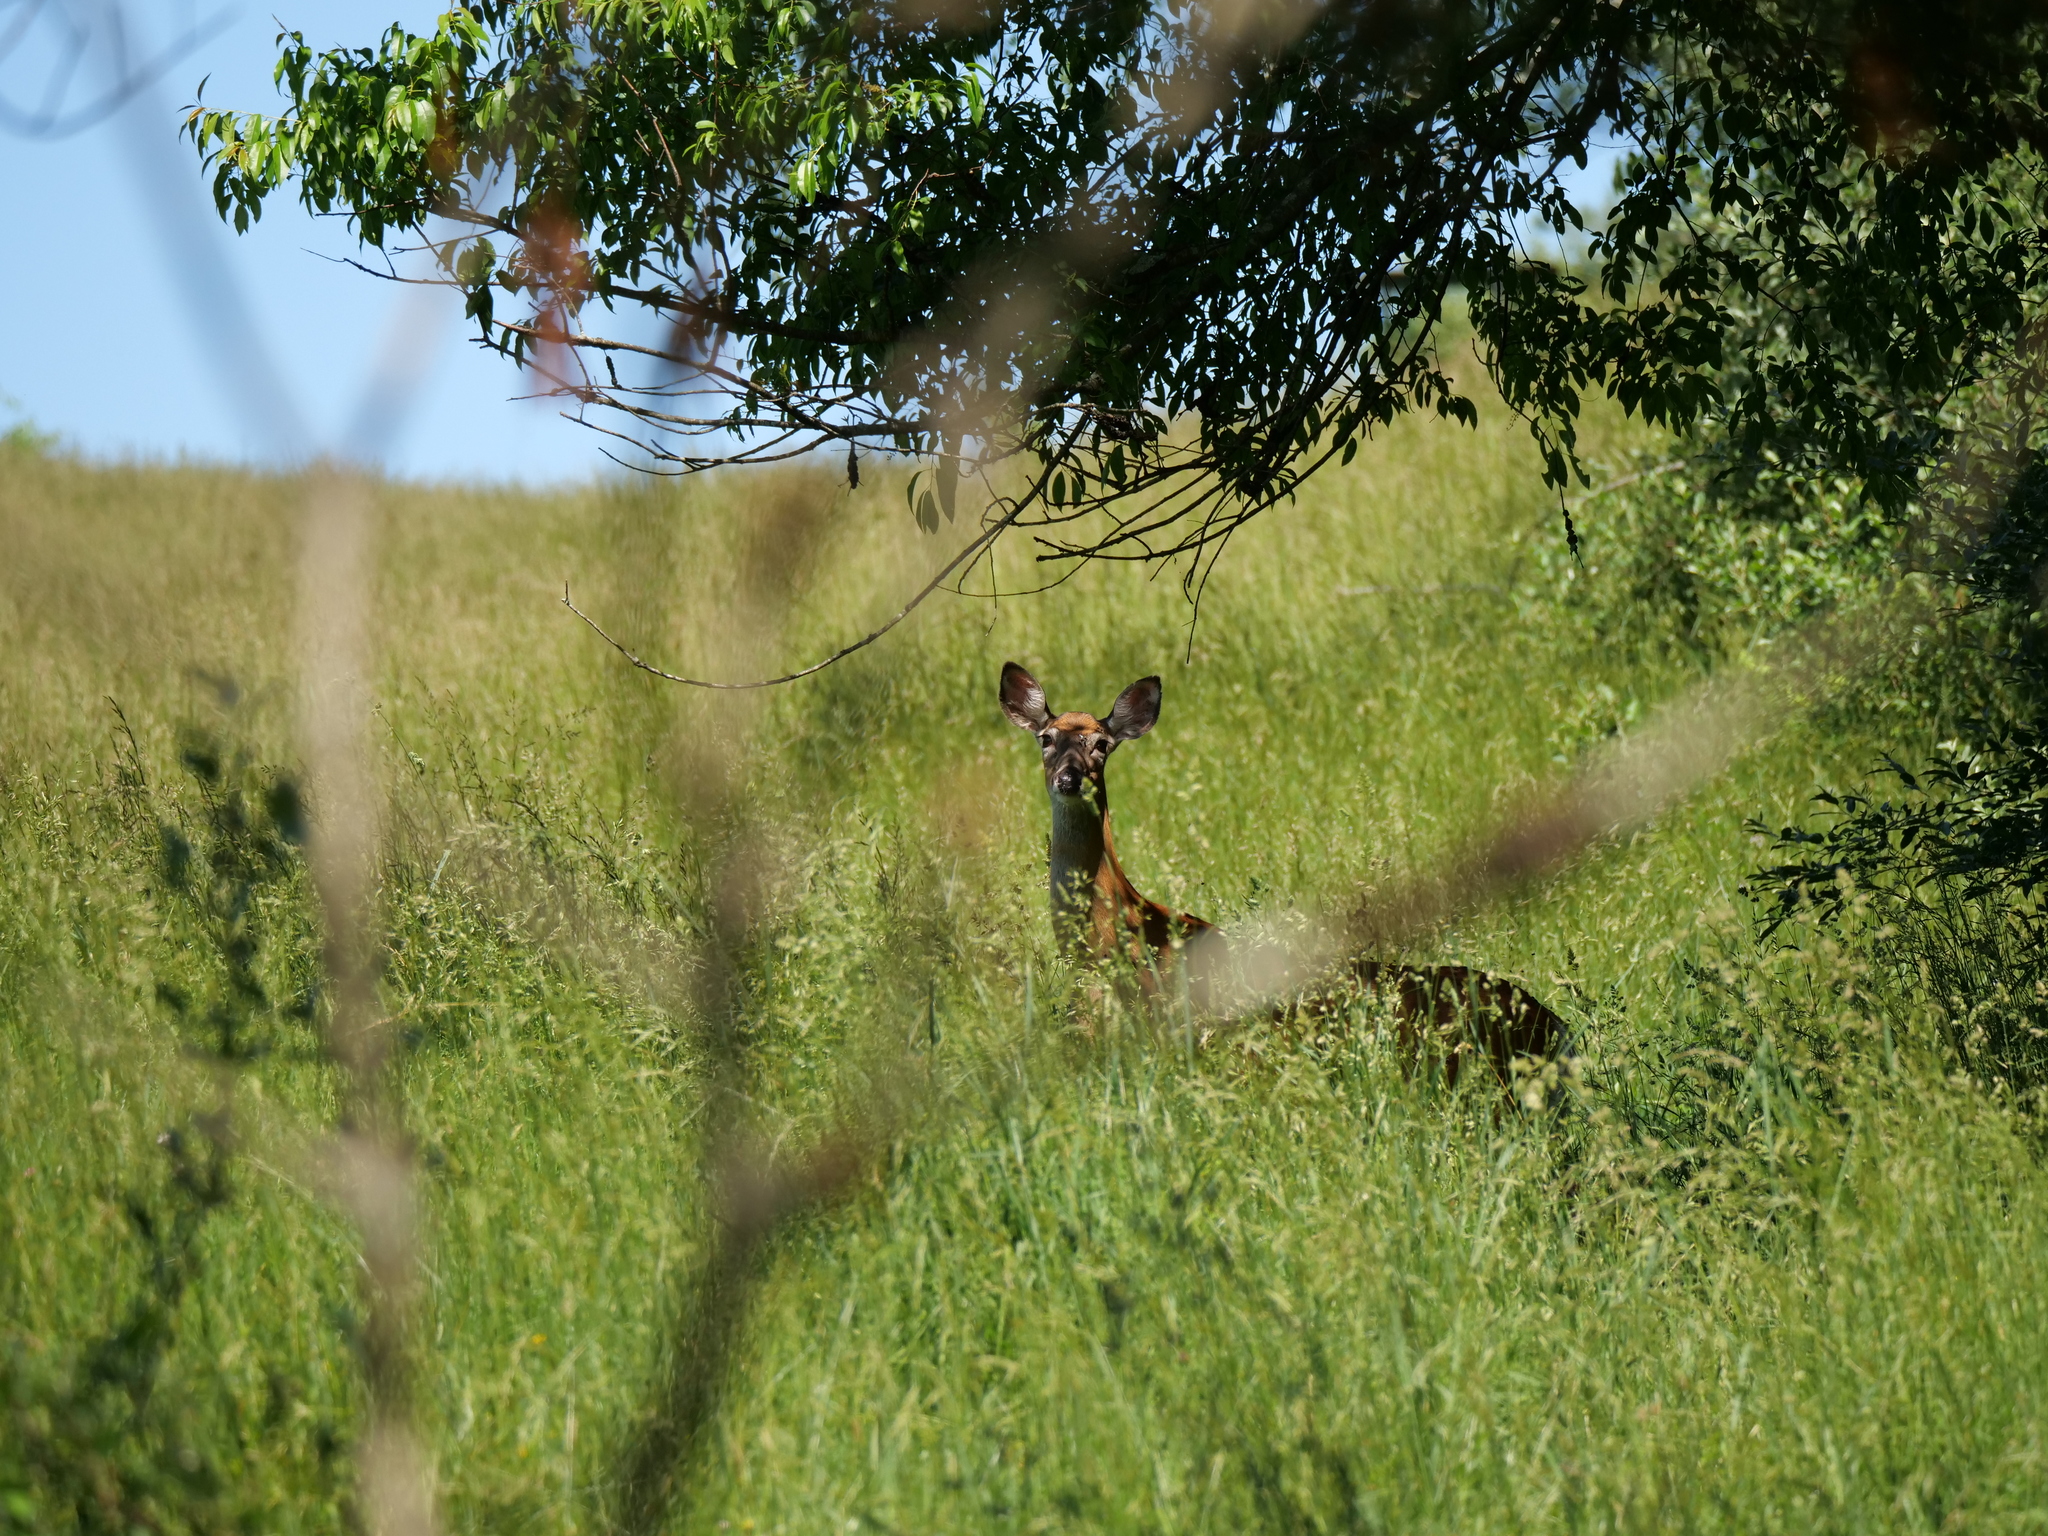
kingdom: Animalia
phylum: Chordata
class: Mammalia
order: Artiodactyla
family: Cervidae
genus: Odocoileus
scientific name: Odocoileus virginianus
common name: White-tailed deer
